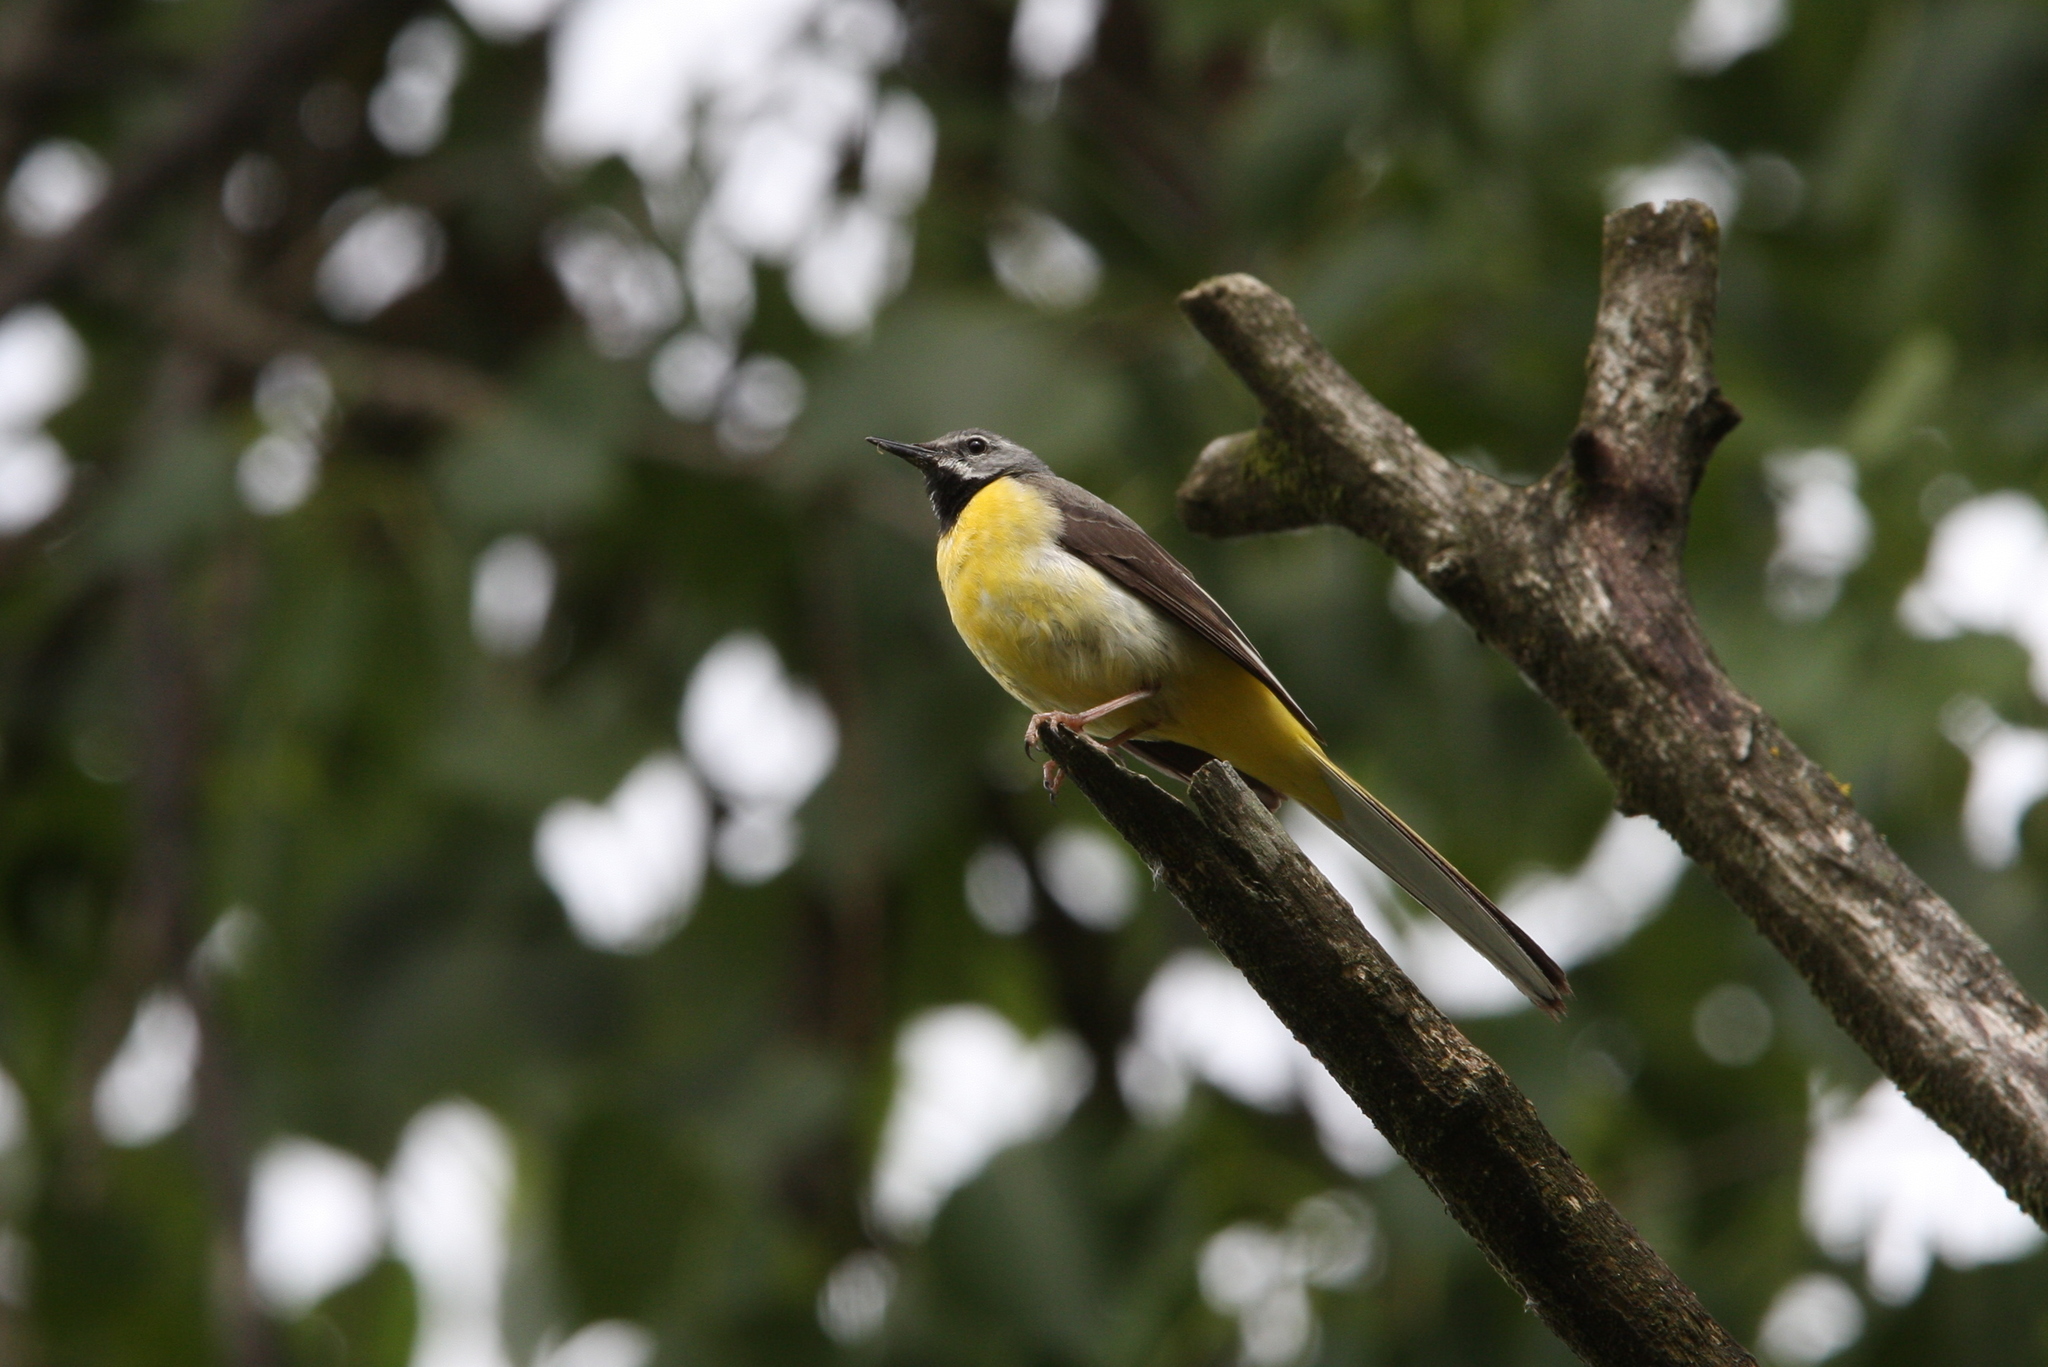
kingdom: Animalia
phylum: Chordata
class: Aves
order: Passeriformes
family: Motacillidae
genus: Motacilla
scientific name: Motacilla cinerea
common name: Grey wagtail
